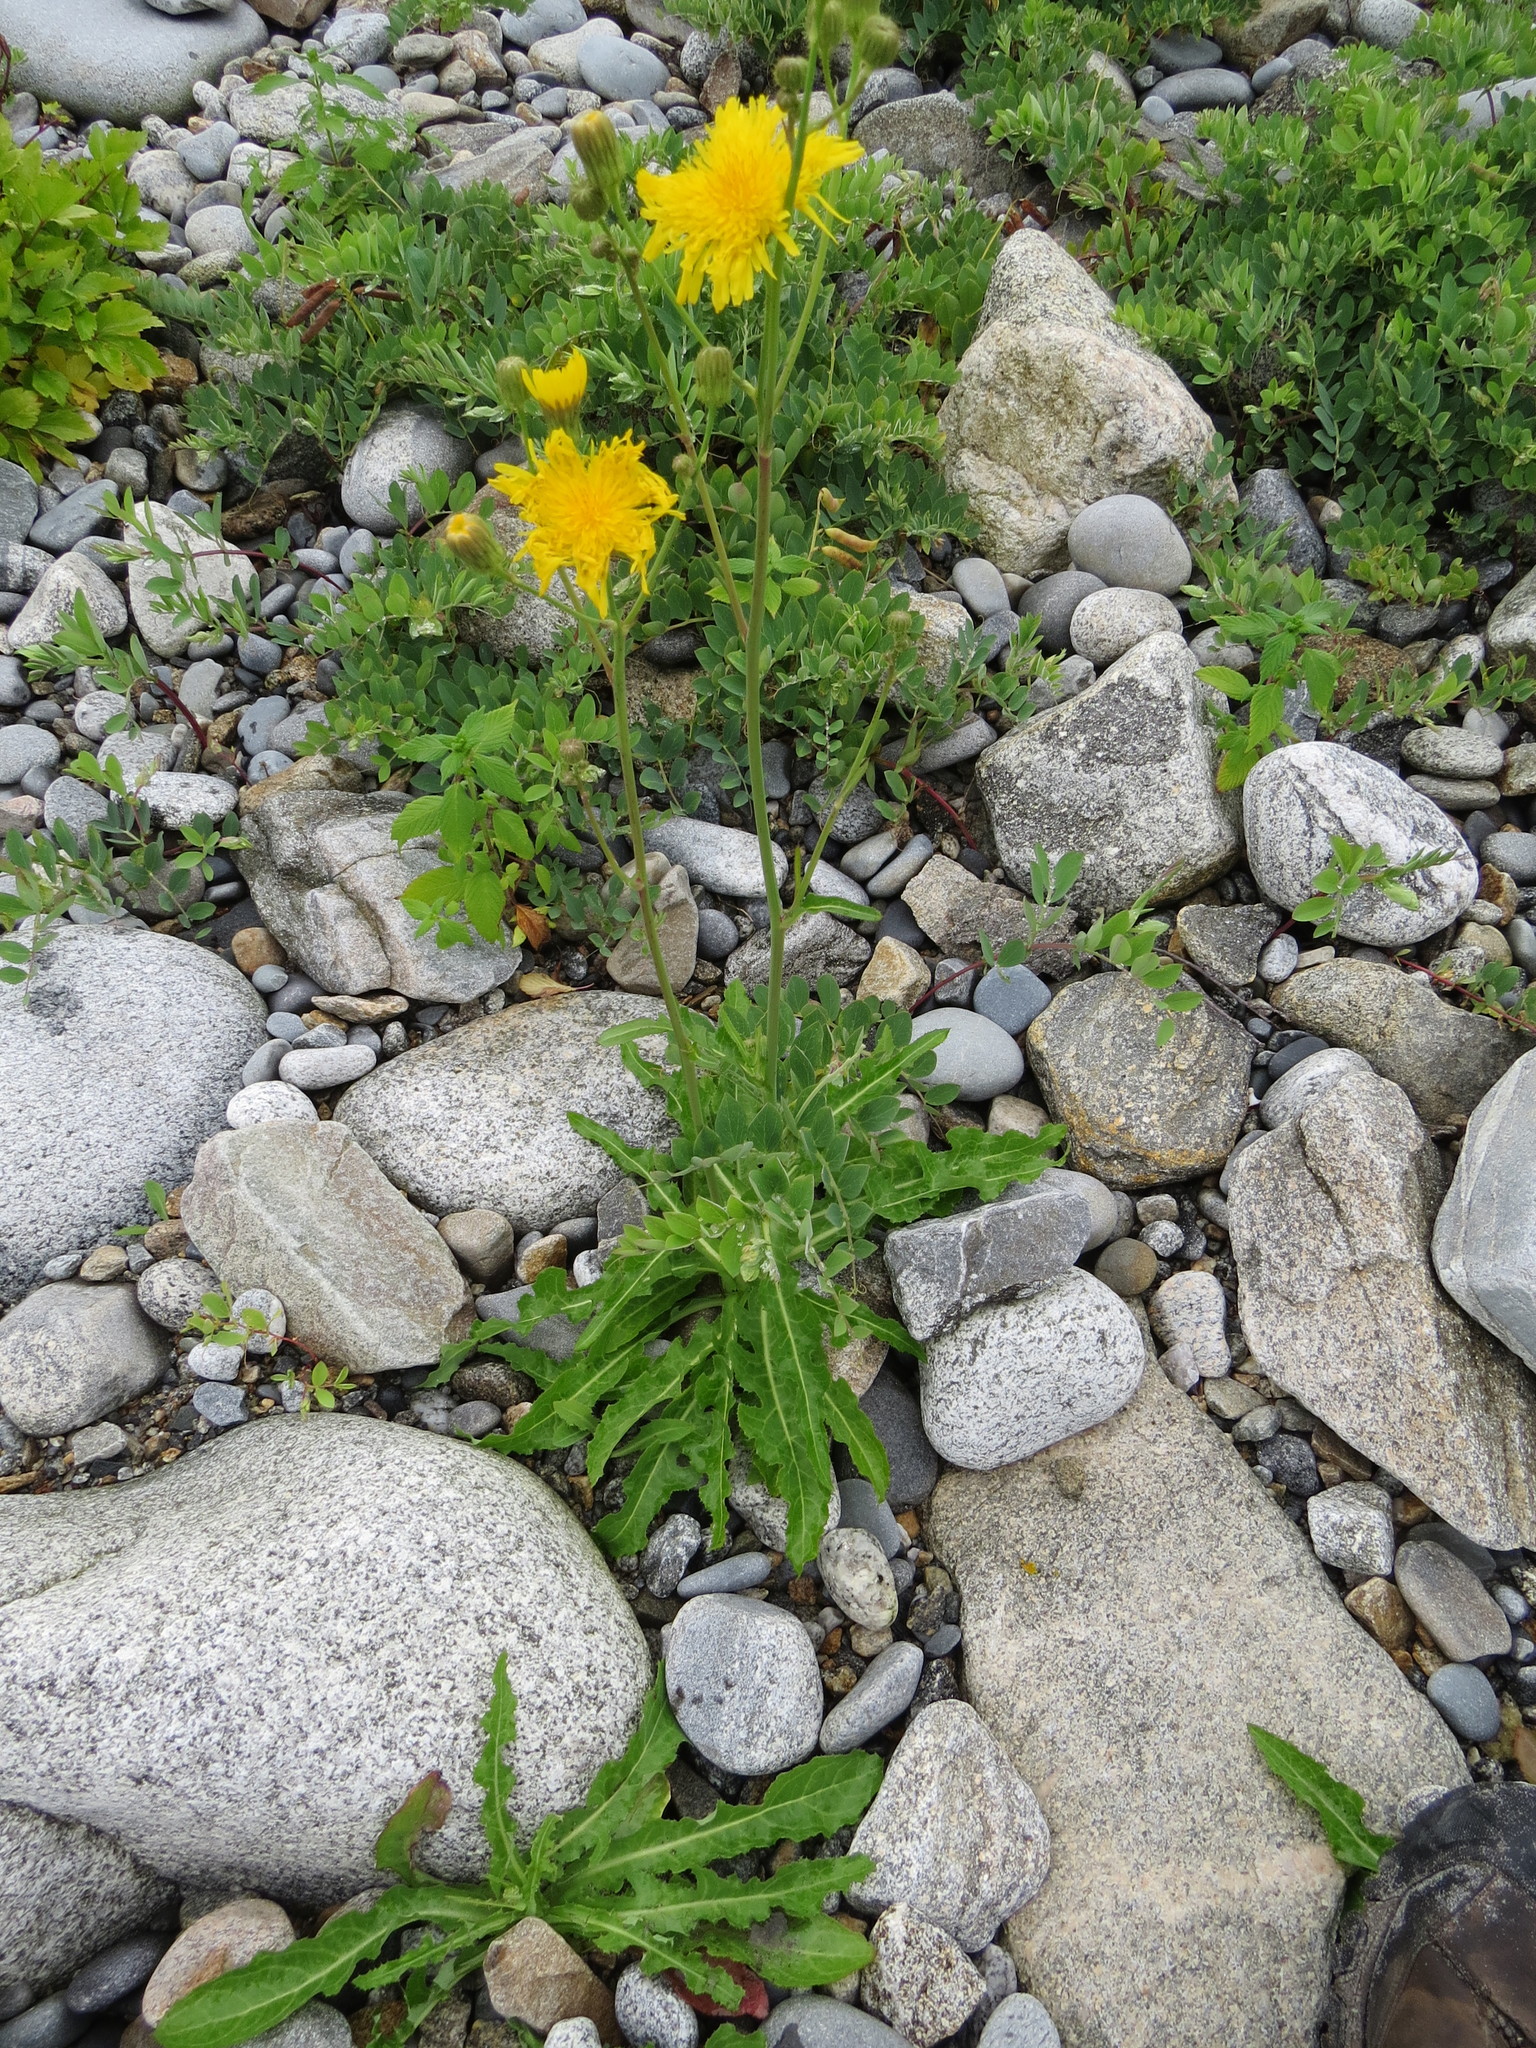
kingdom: Plantae
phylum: Tracheophyta
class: Magnoliopsida
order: Asterales
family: Asteraceae
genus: Sonchus
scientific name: Sonchus arvensis
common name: Perennial sow-thistle
